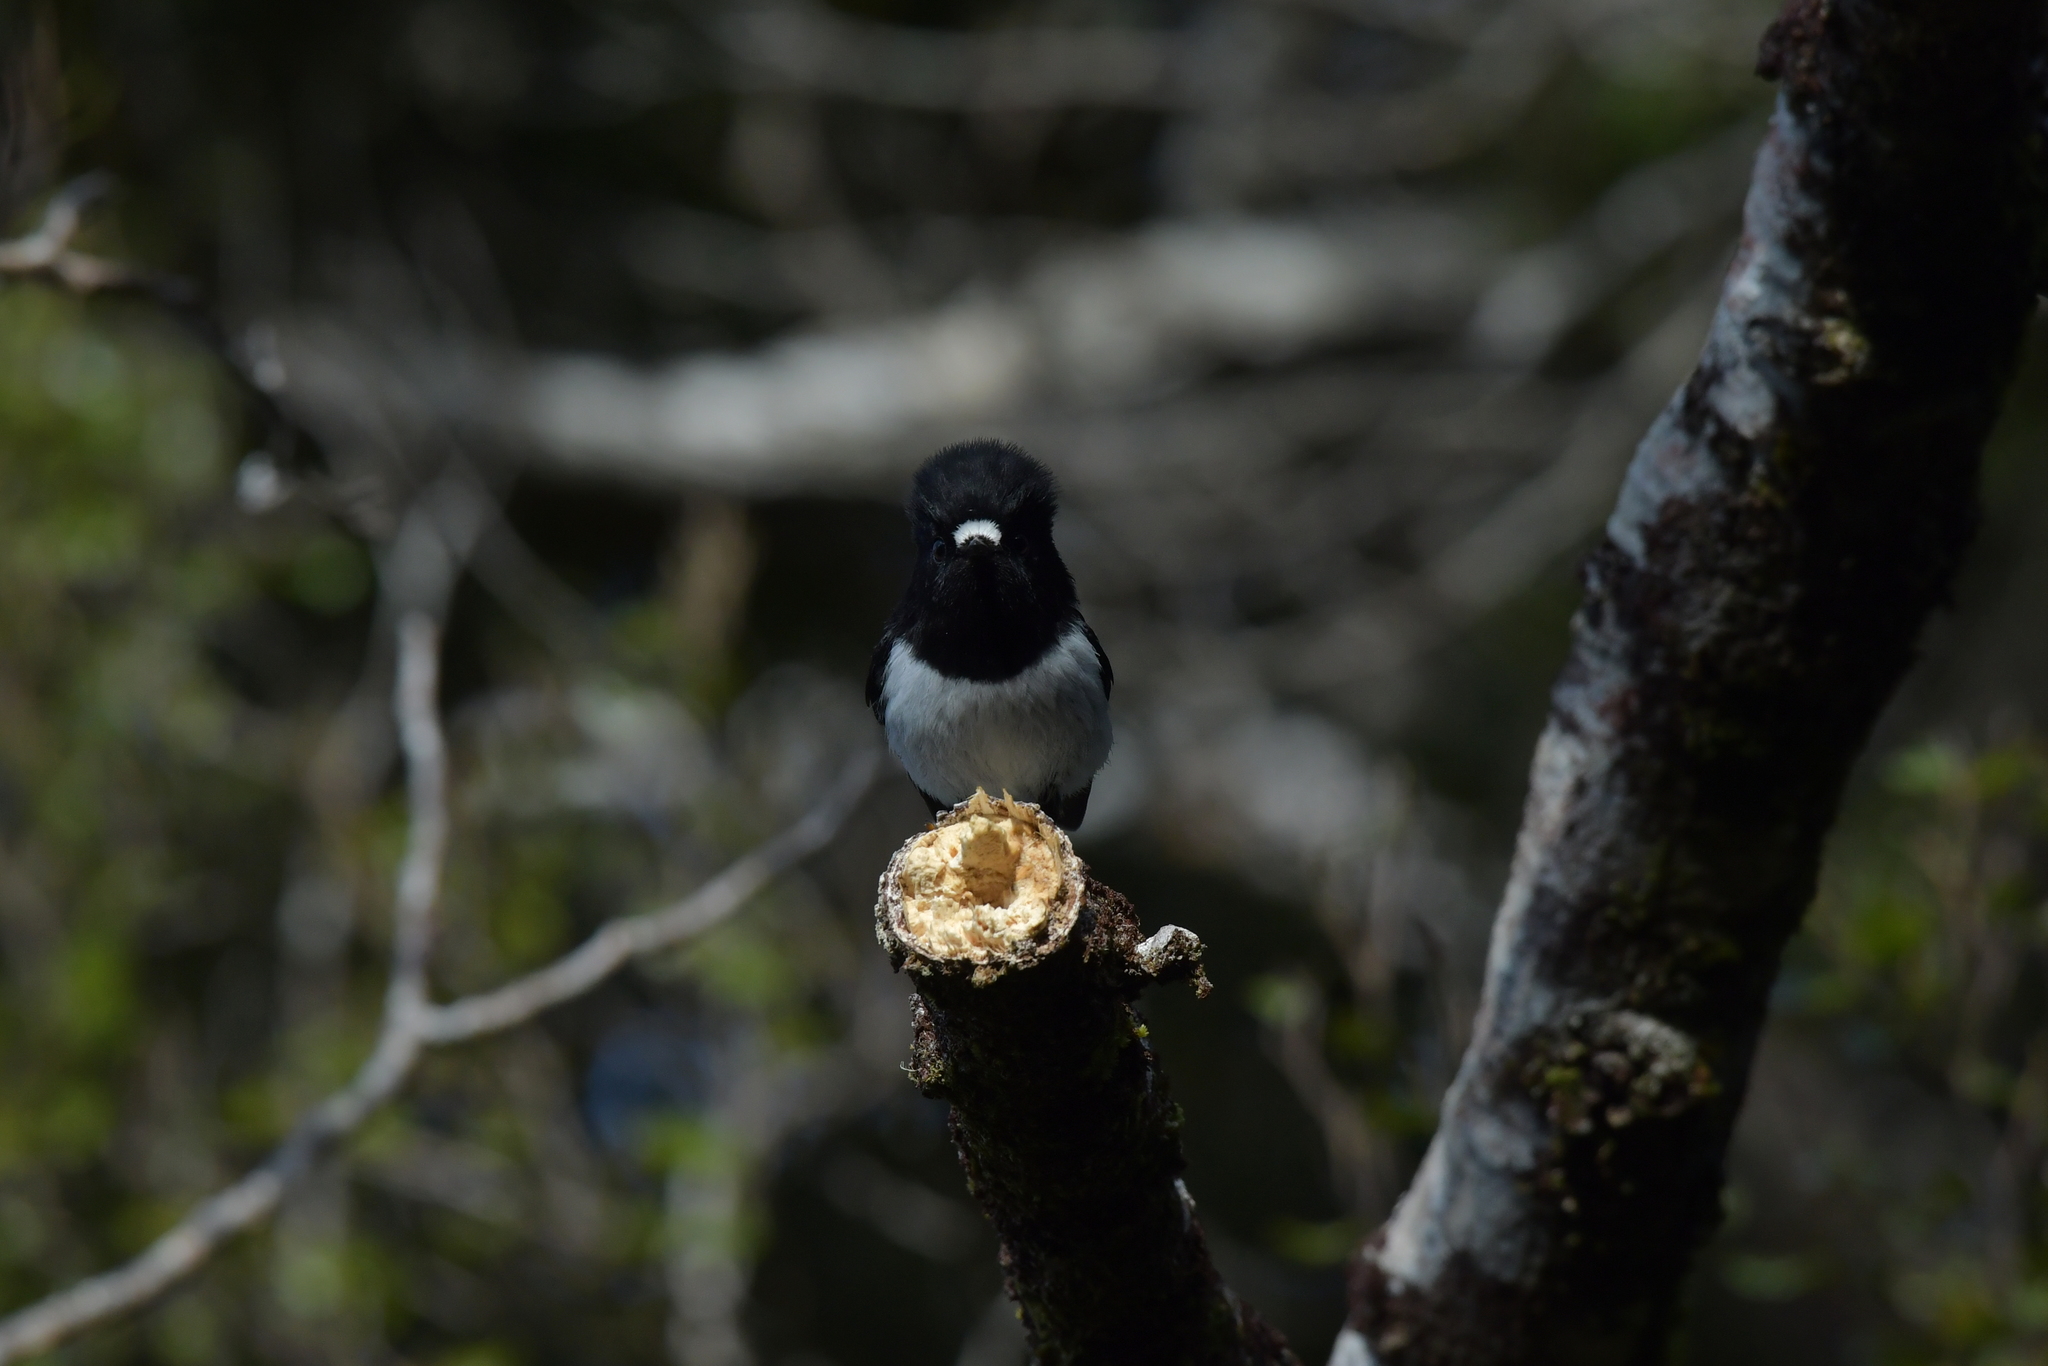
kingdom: Animalia
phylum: Chordata
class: Aves
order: Passeriformes
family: Petroicidae
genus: Petroica
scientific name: Petroica macrocephala
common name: Tomtit
